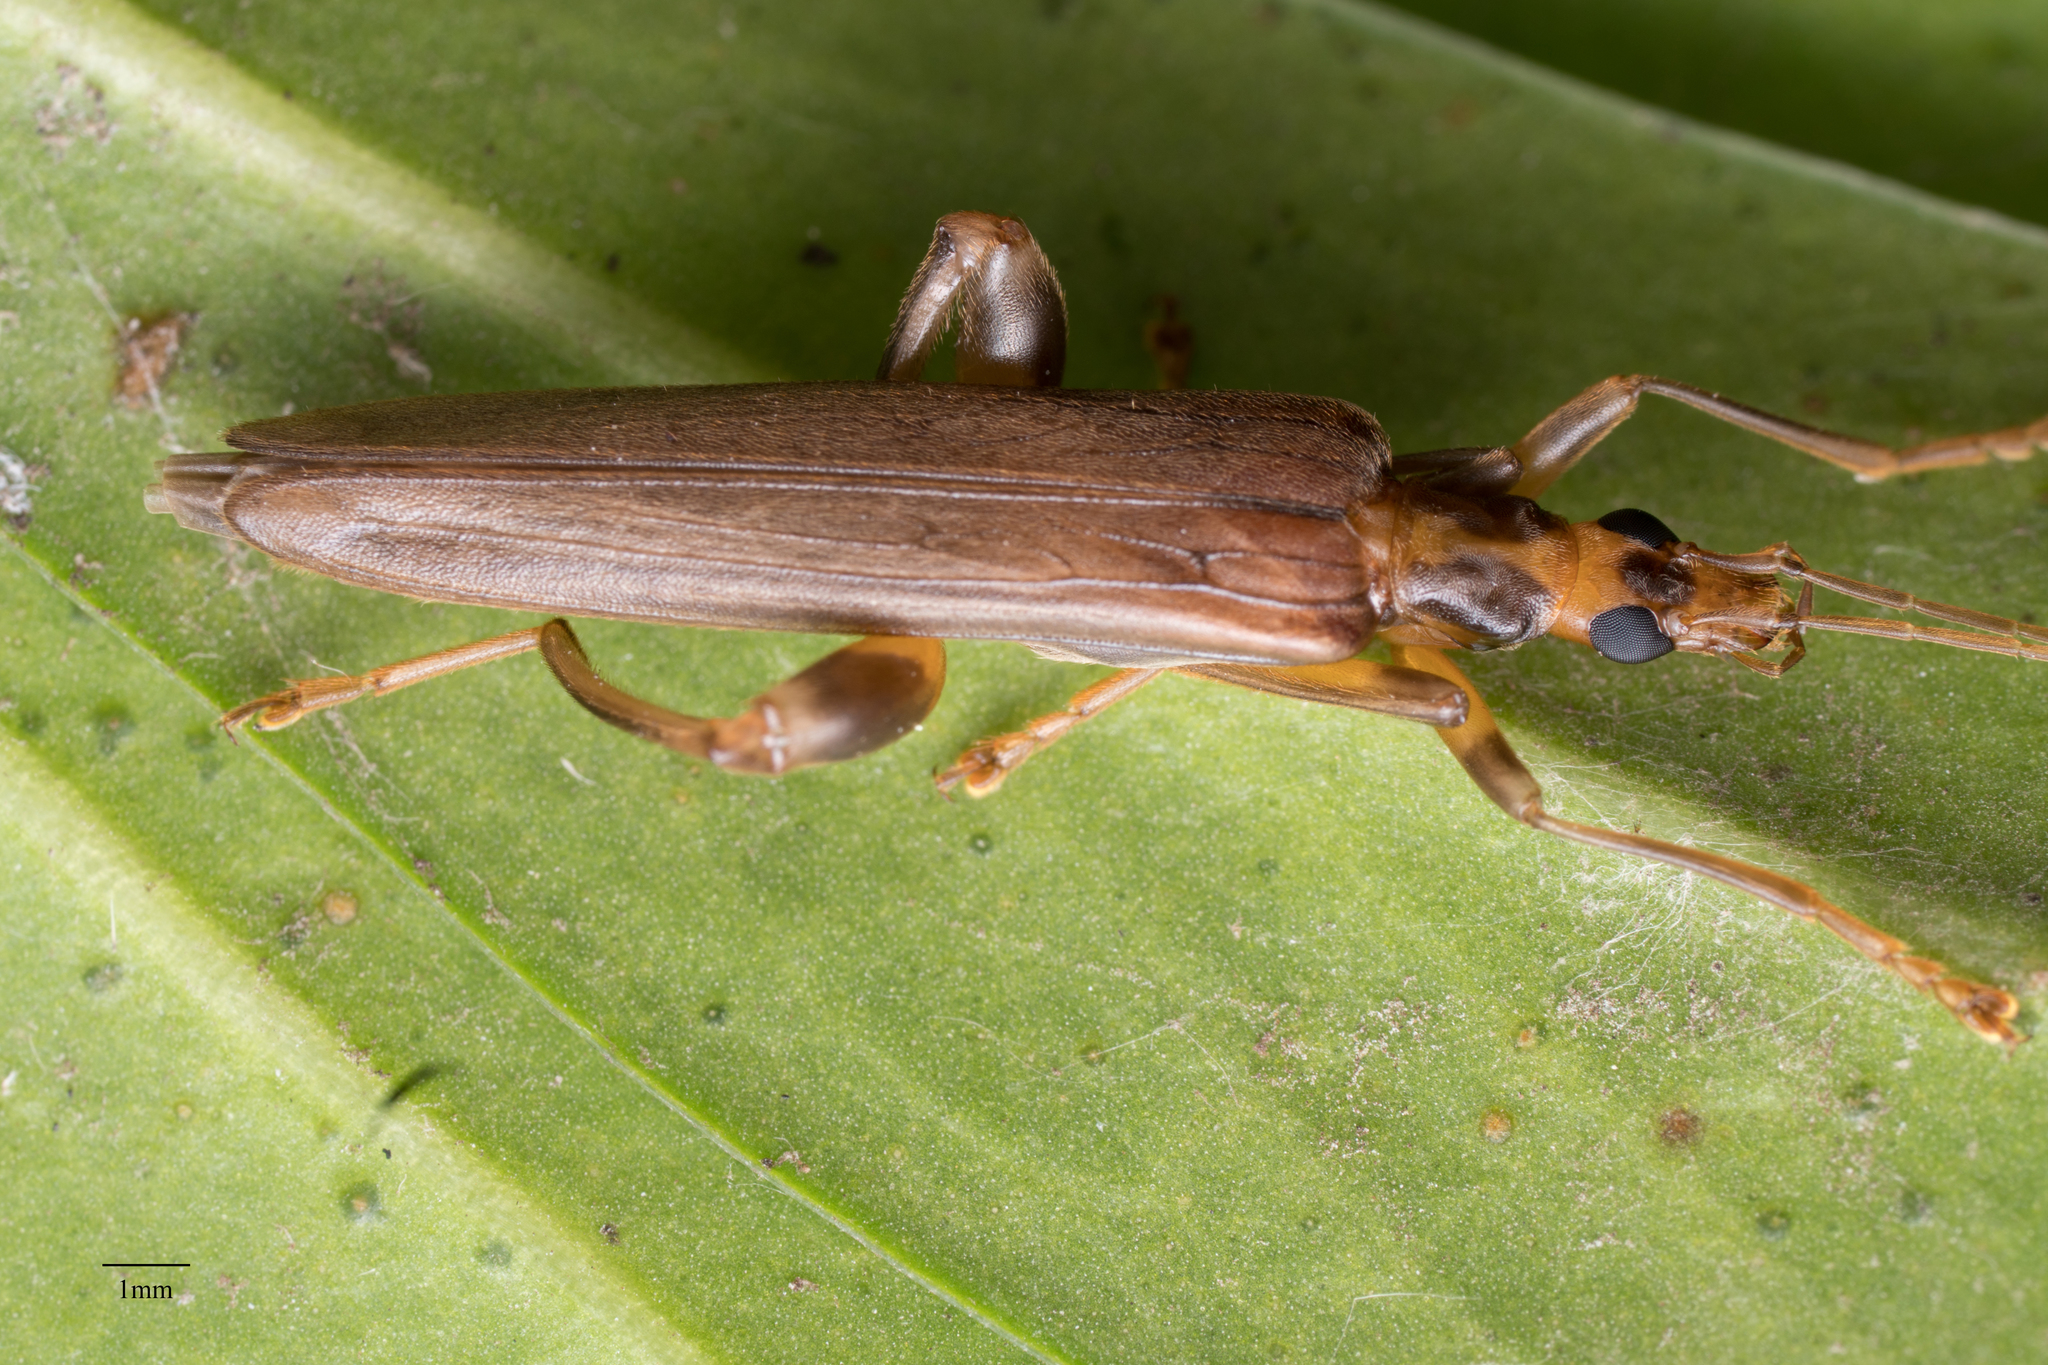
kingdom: Animalia
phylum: Arthropoda
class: Insecta
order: Coleoptera
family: Oedemeridae
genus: Oedemera
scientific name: Oedemera femoralis
